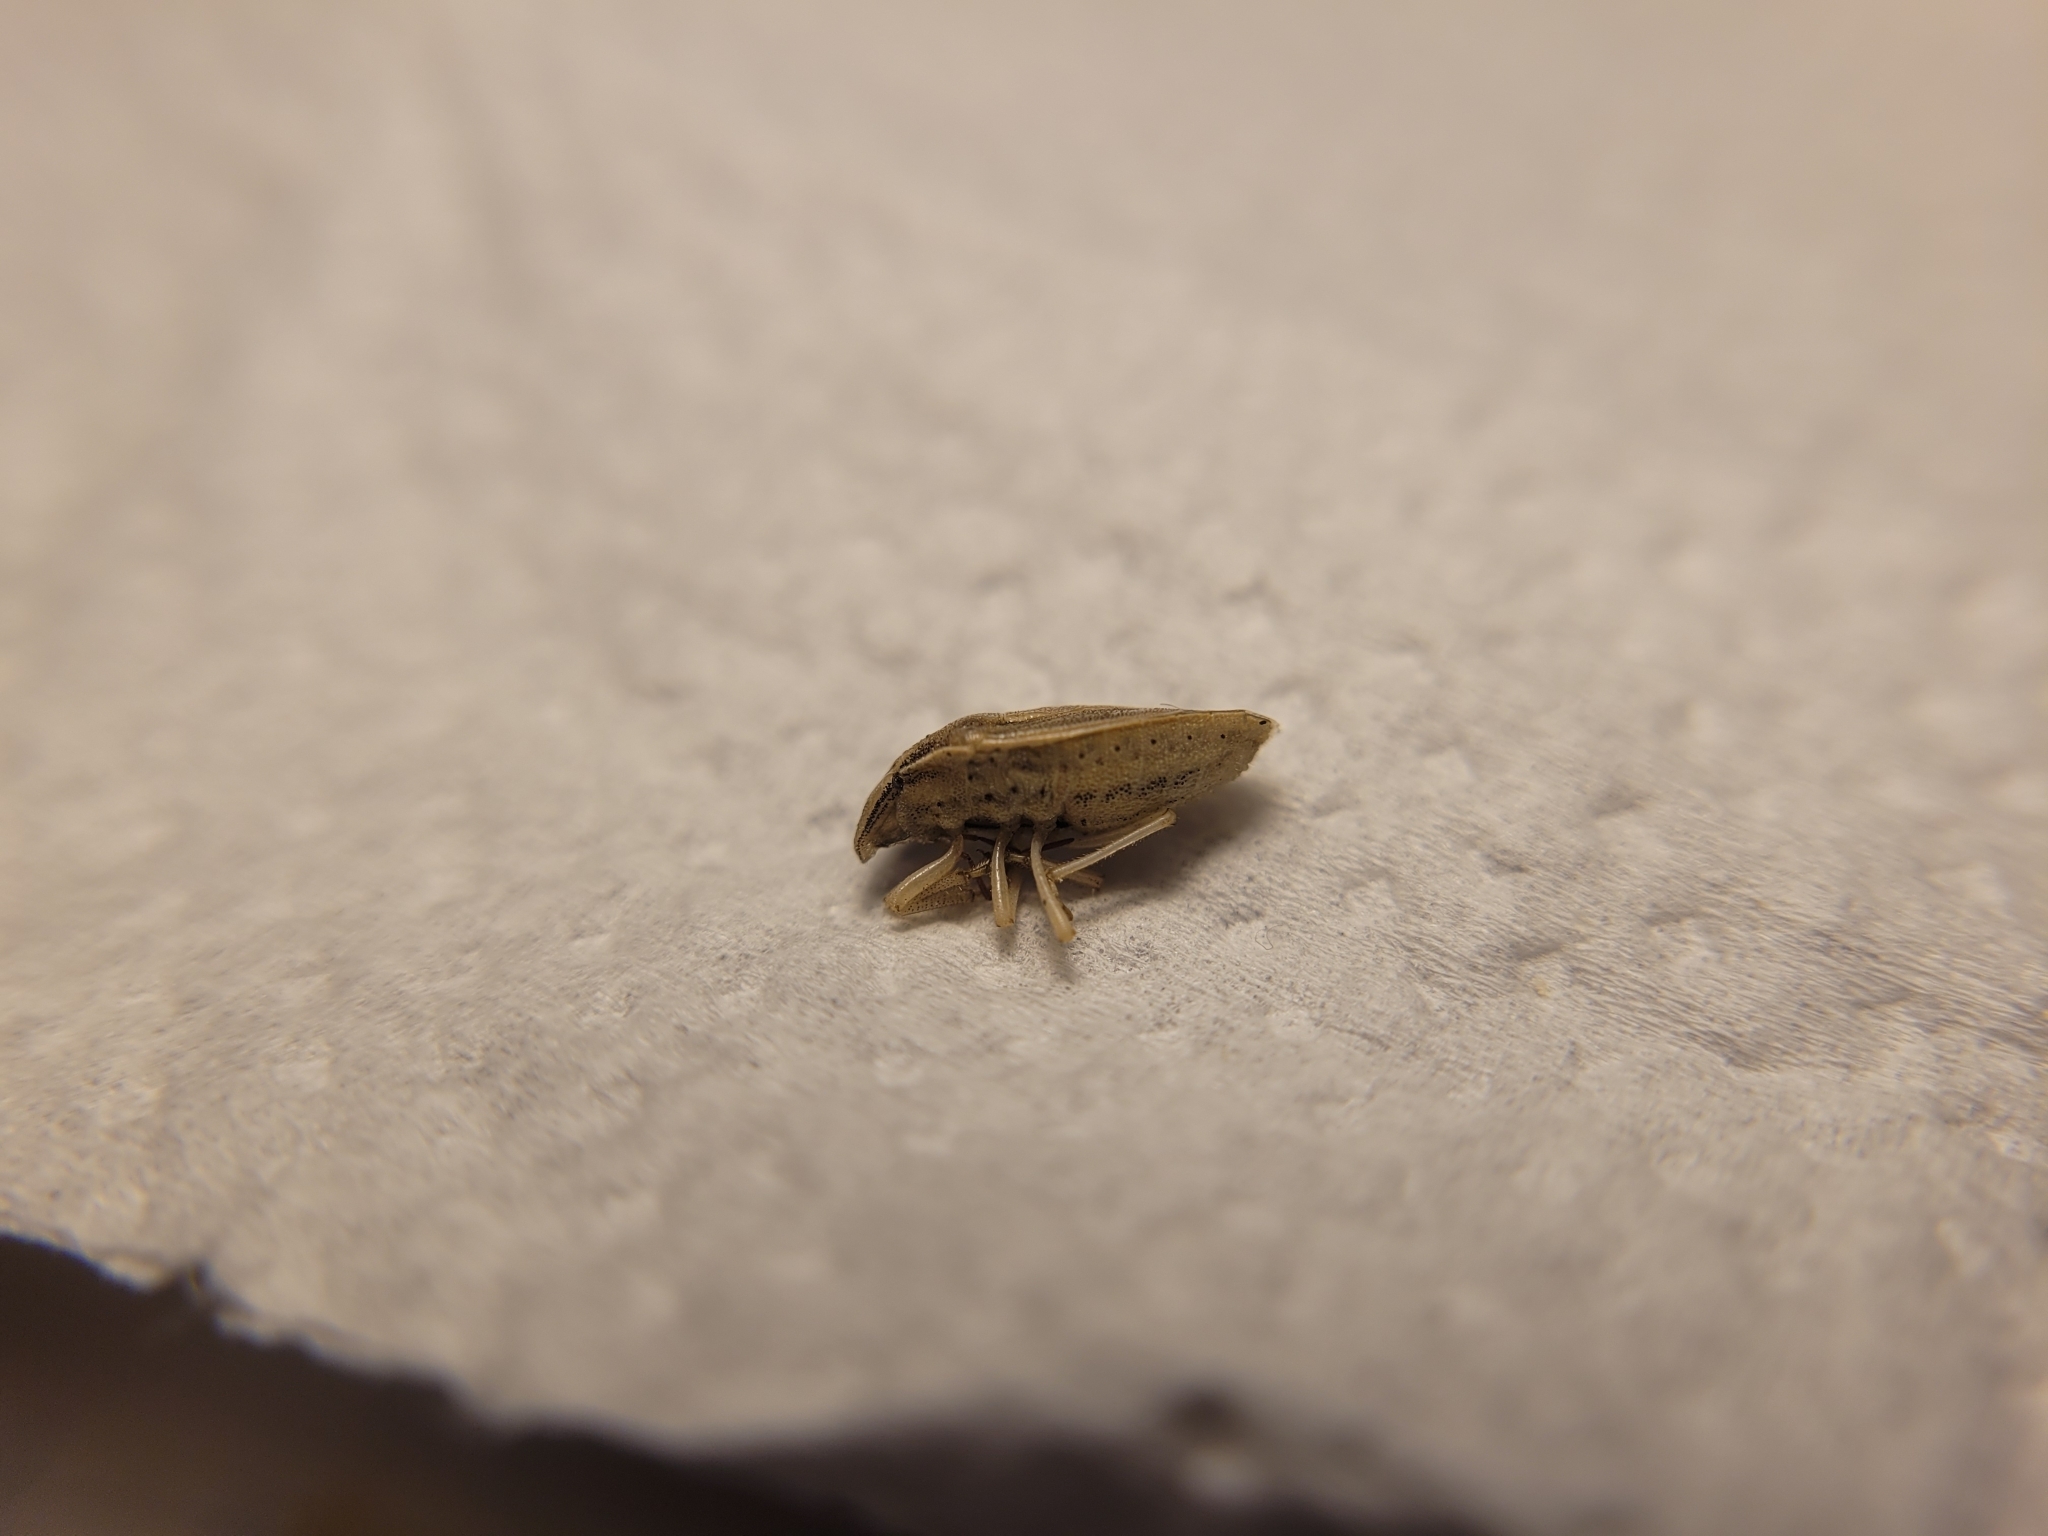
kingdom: Animalia
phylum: Arthropoda
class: Insecta
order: Hemiptera
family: Pentatomidae
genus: Aelia
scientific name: Aelia acuminata
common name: Bishop's mitre
